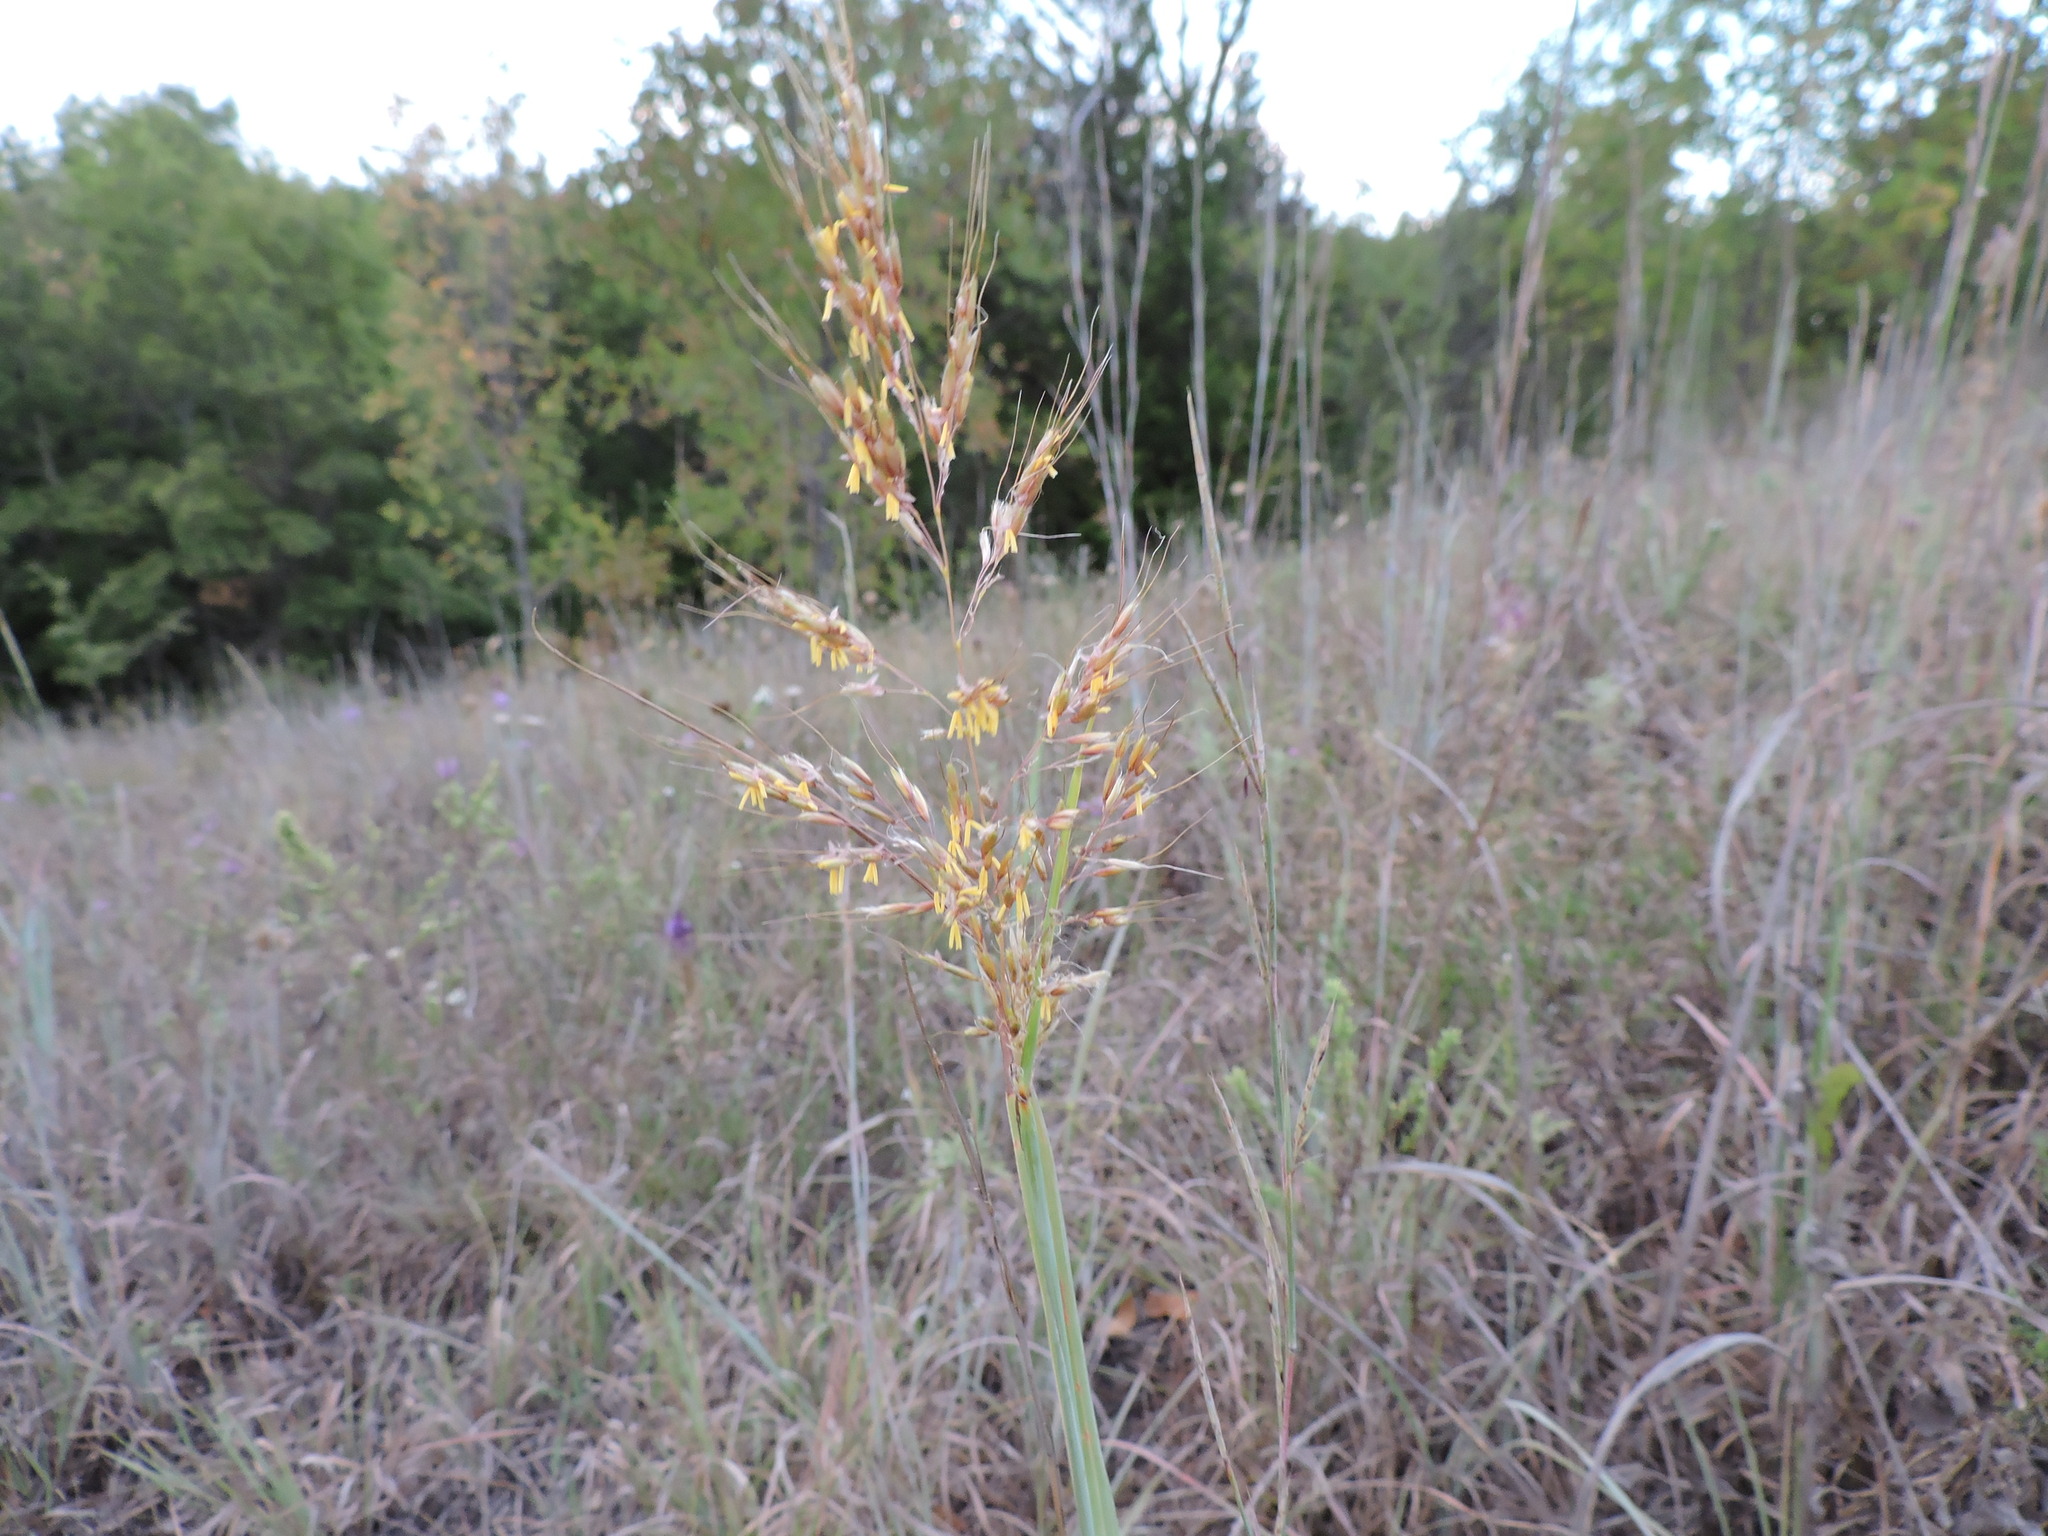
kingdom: Plantae
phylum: Tracheophyta
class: Liliopsida
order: Poales
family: Poaceae
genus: Sorghastrum
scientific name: Sorghastrum nutans
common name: Indian grass
